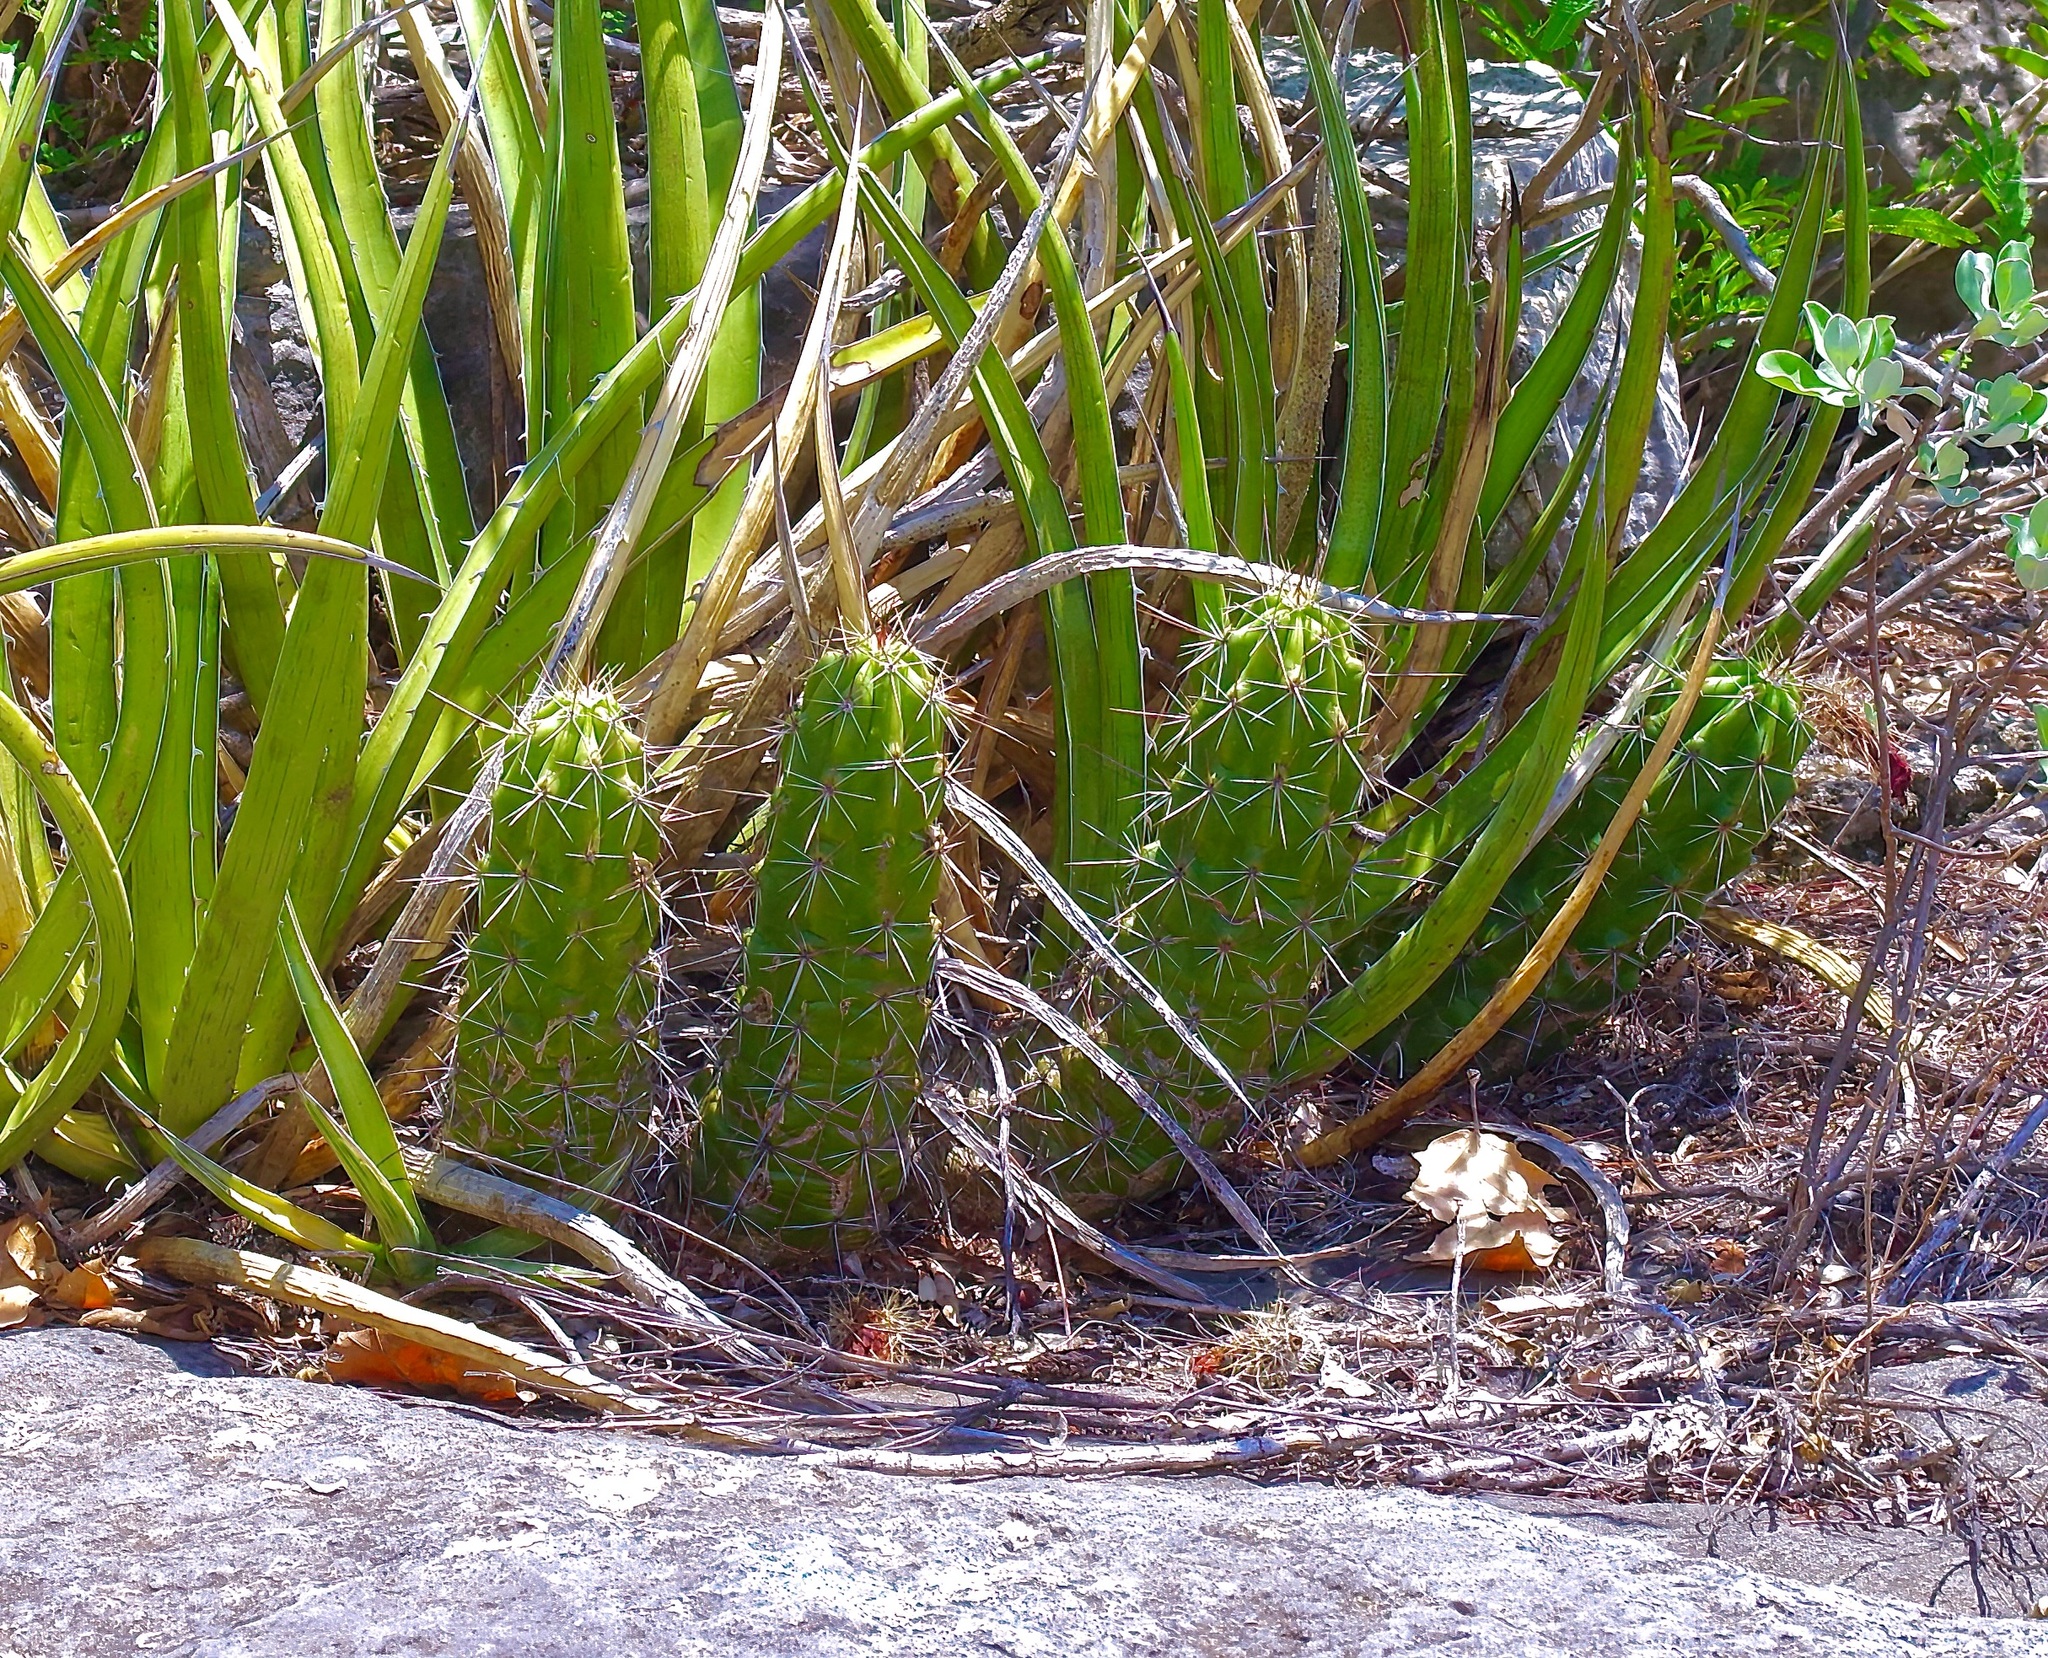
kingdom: Plantae
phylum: Tracheophyta
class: Magnoliopsida
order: Caryophyllales
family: Cactaceae
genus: Echinocereus
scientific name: Echinocereus enneacanthus
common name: Pitaya
